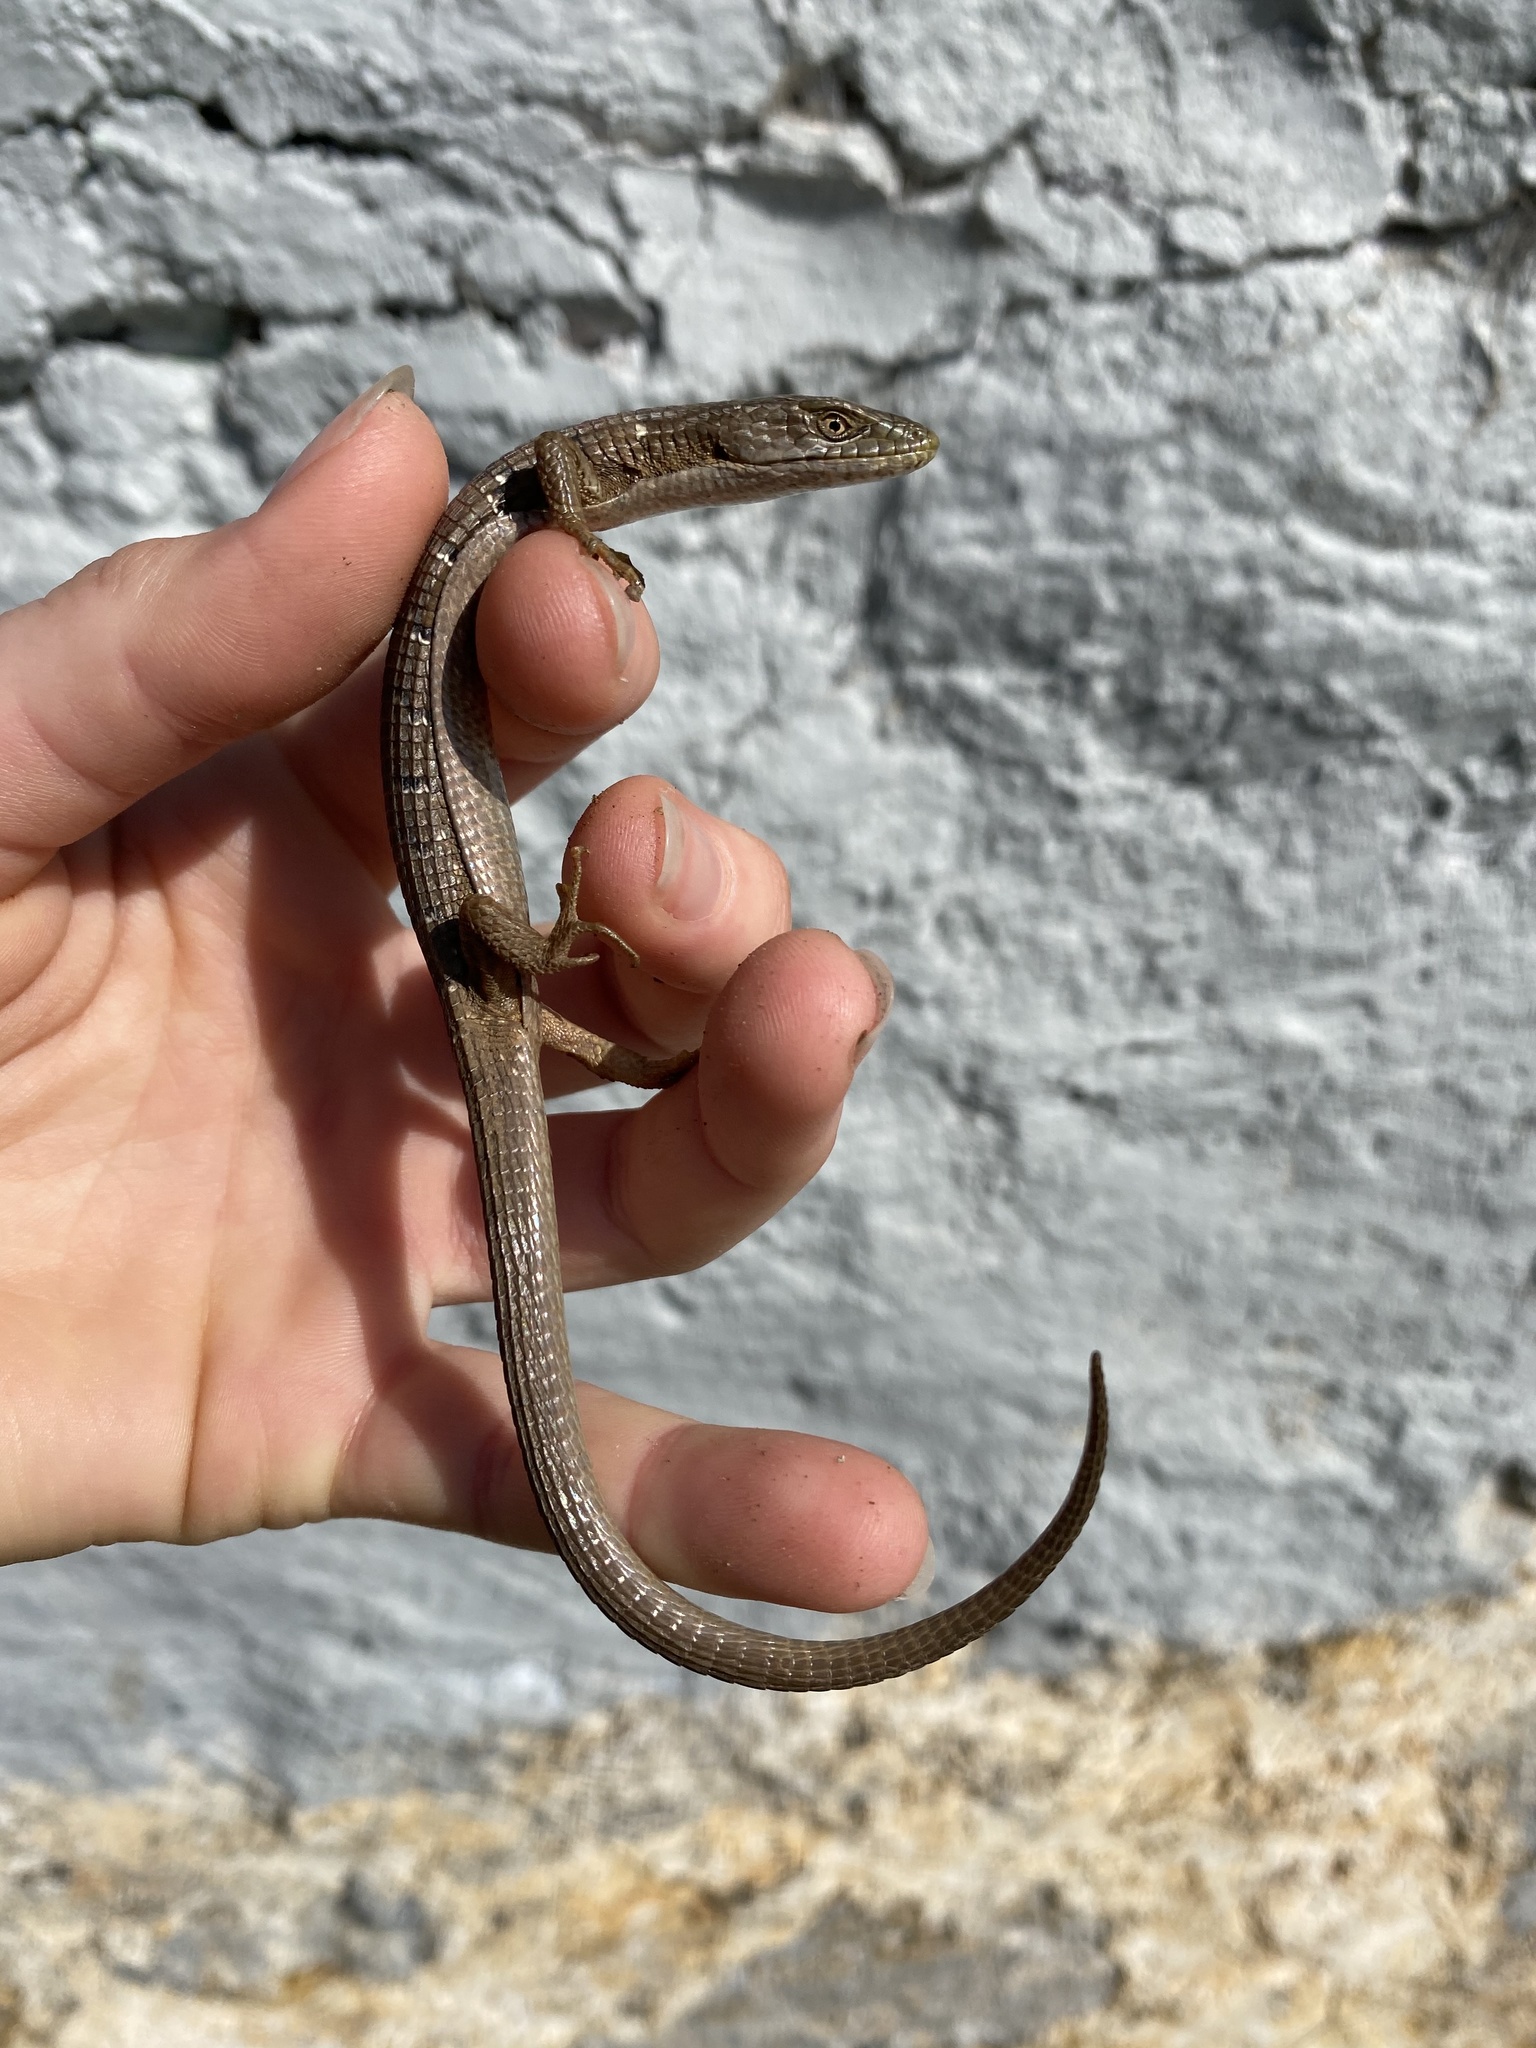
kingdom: Animalia
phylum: Chordata
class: Squamata
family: Anguidae
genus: Elgaria
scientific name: Elgaria multicarinata
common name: Southern alligator lizard
